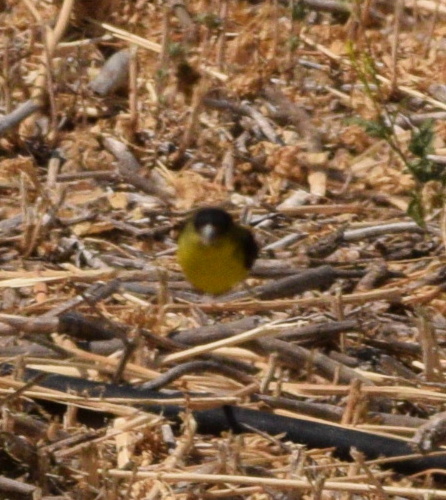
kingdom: Animalia
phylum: Chordata
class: Aves
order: Passeriformes
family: Fringillidae
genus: Spinus
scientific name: Spinus psaltria
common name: Lesser goldfinch
